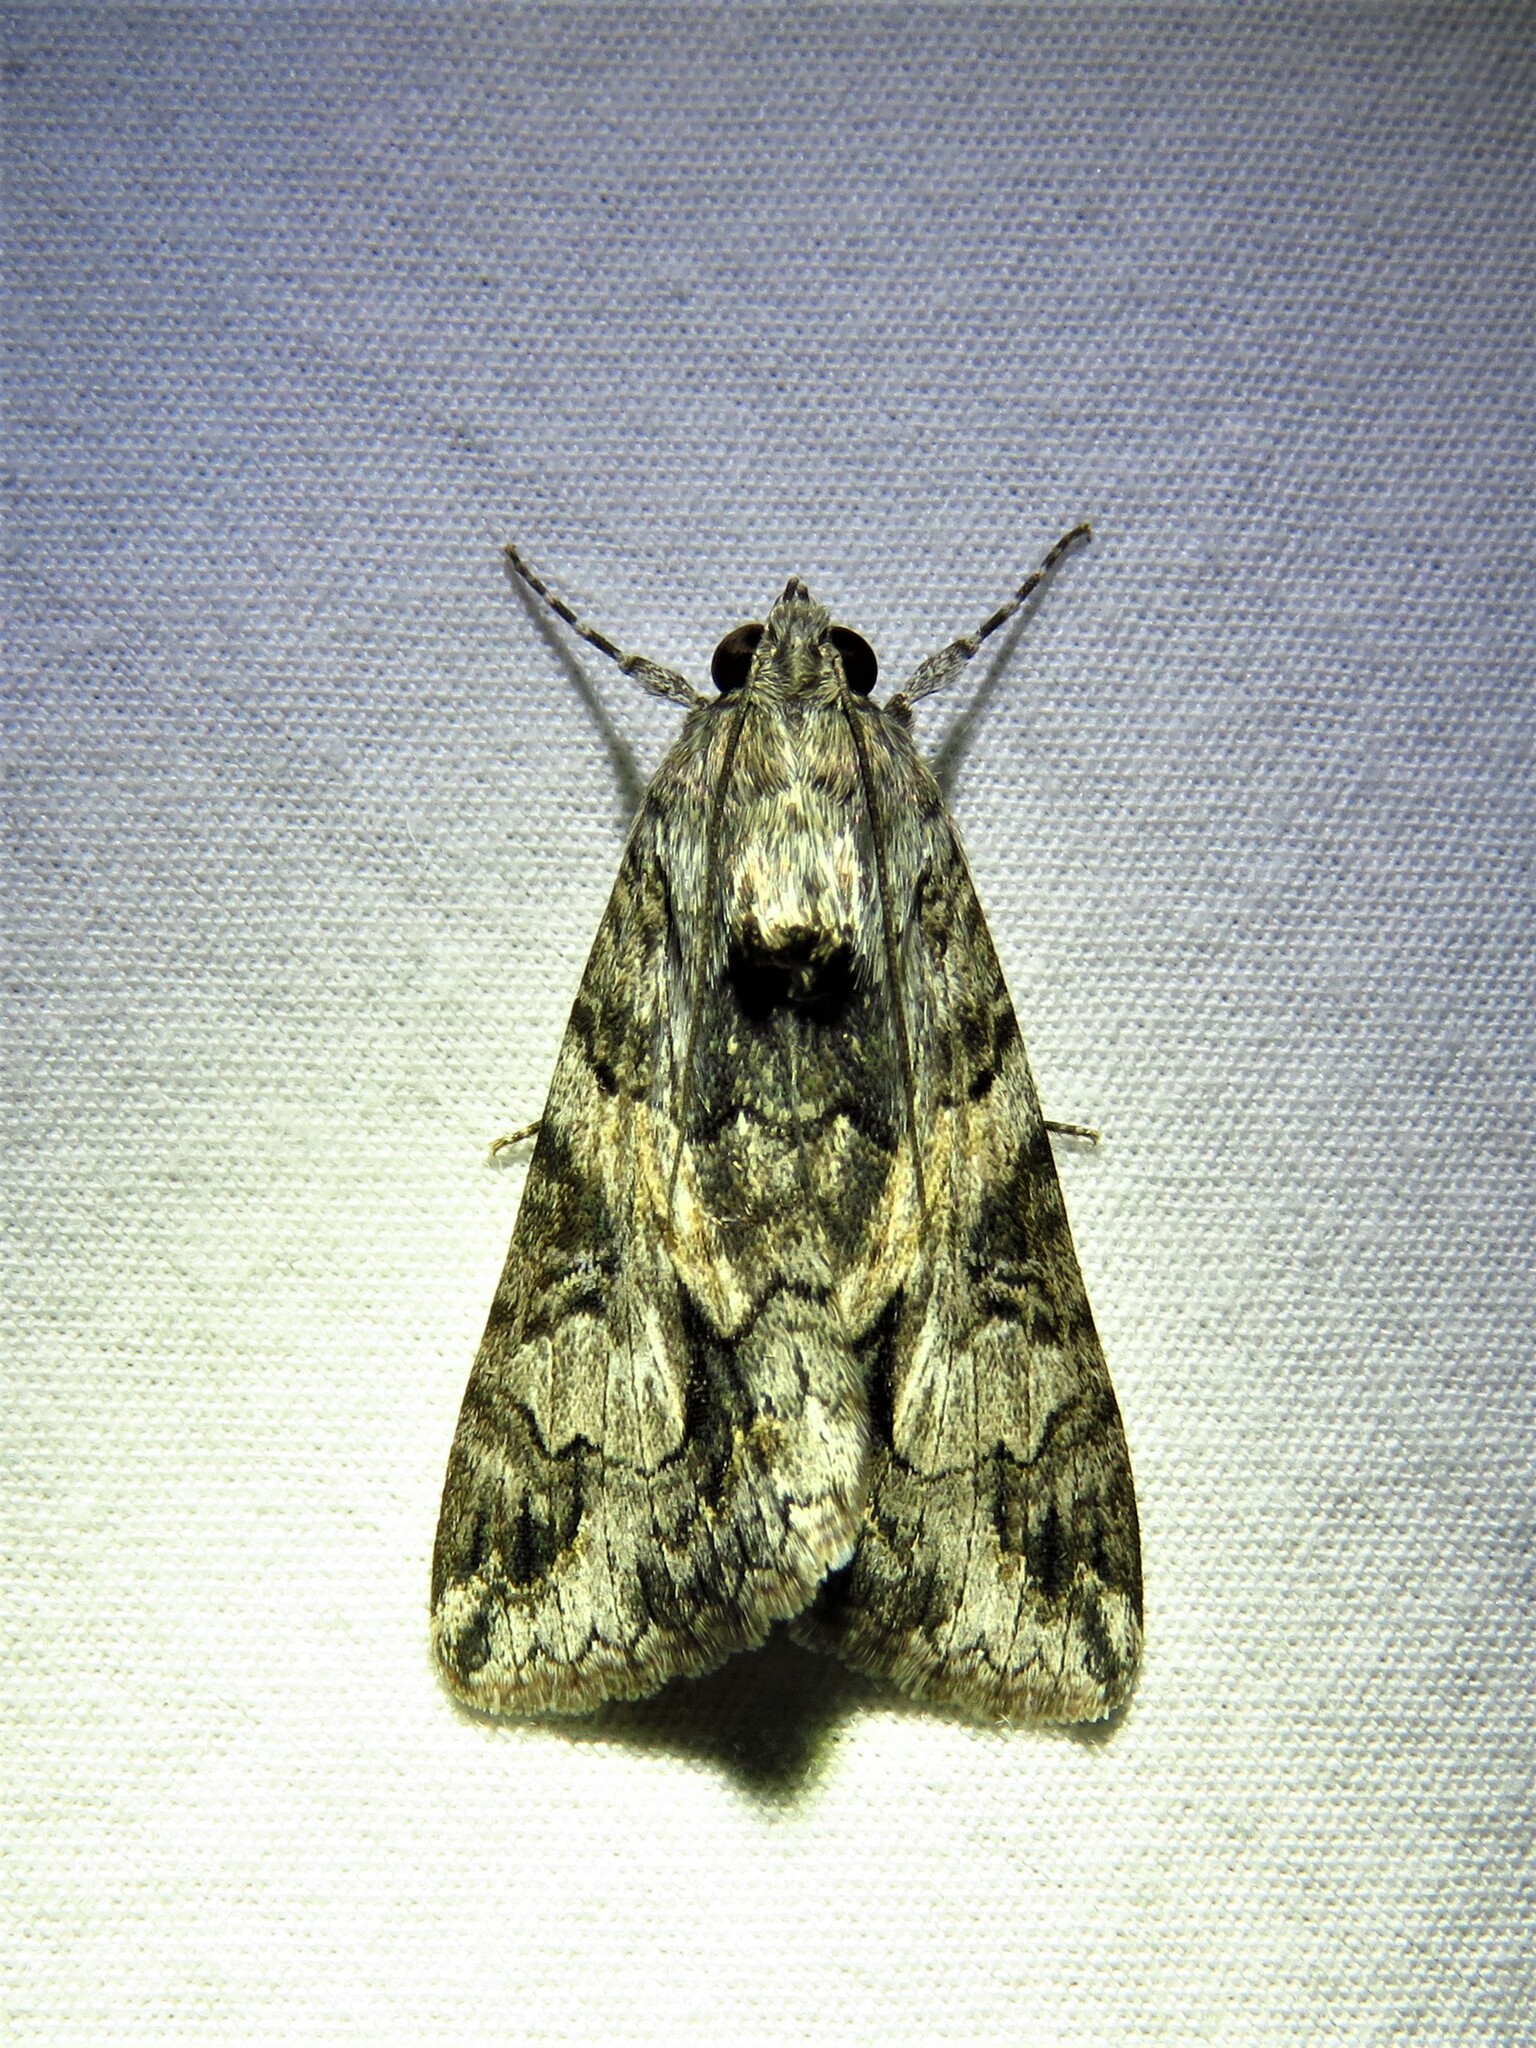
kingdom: Animalia
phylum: Arthropoda
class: Insecta
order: Lepidoptera
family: Erebidae
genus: Melipotis
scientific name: Melipotis jucunda
